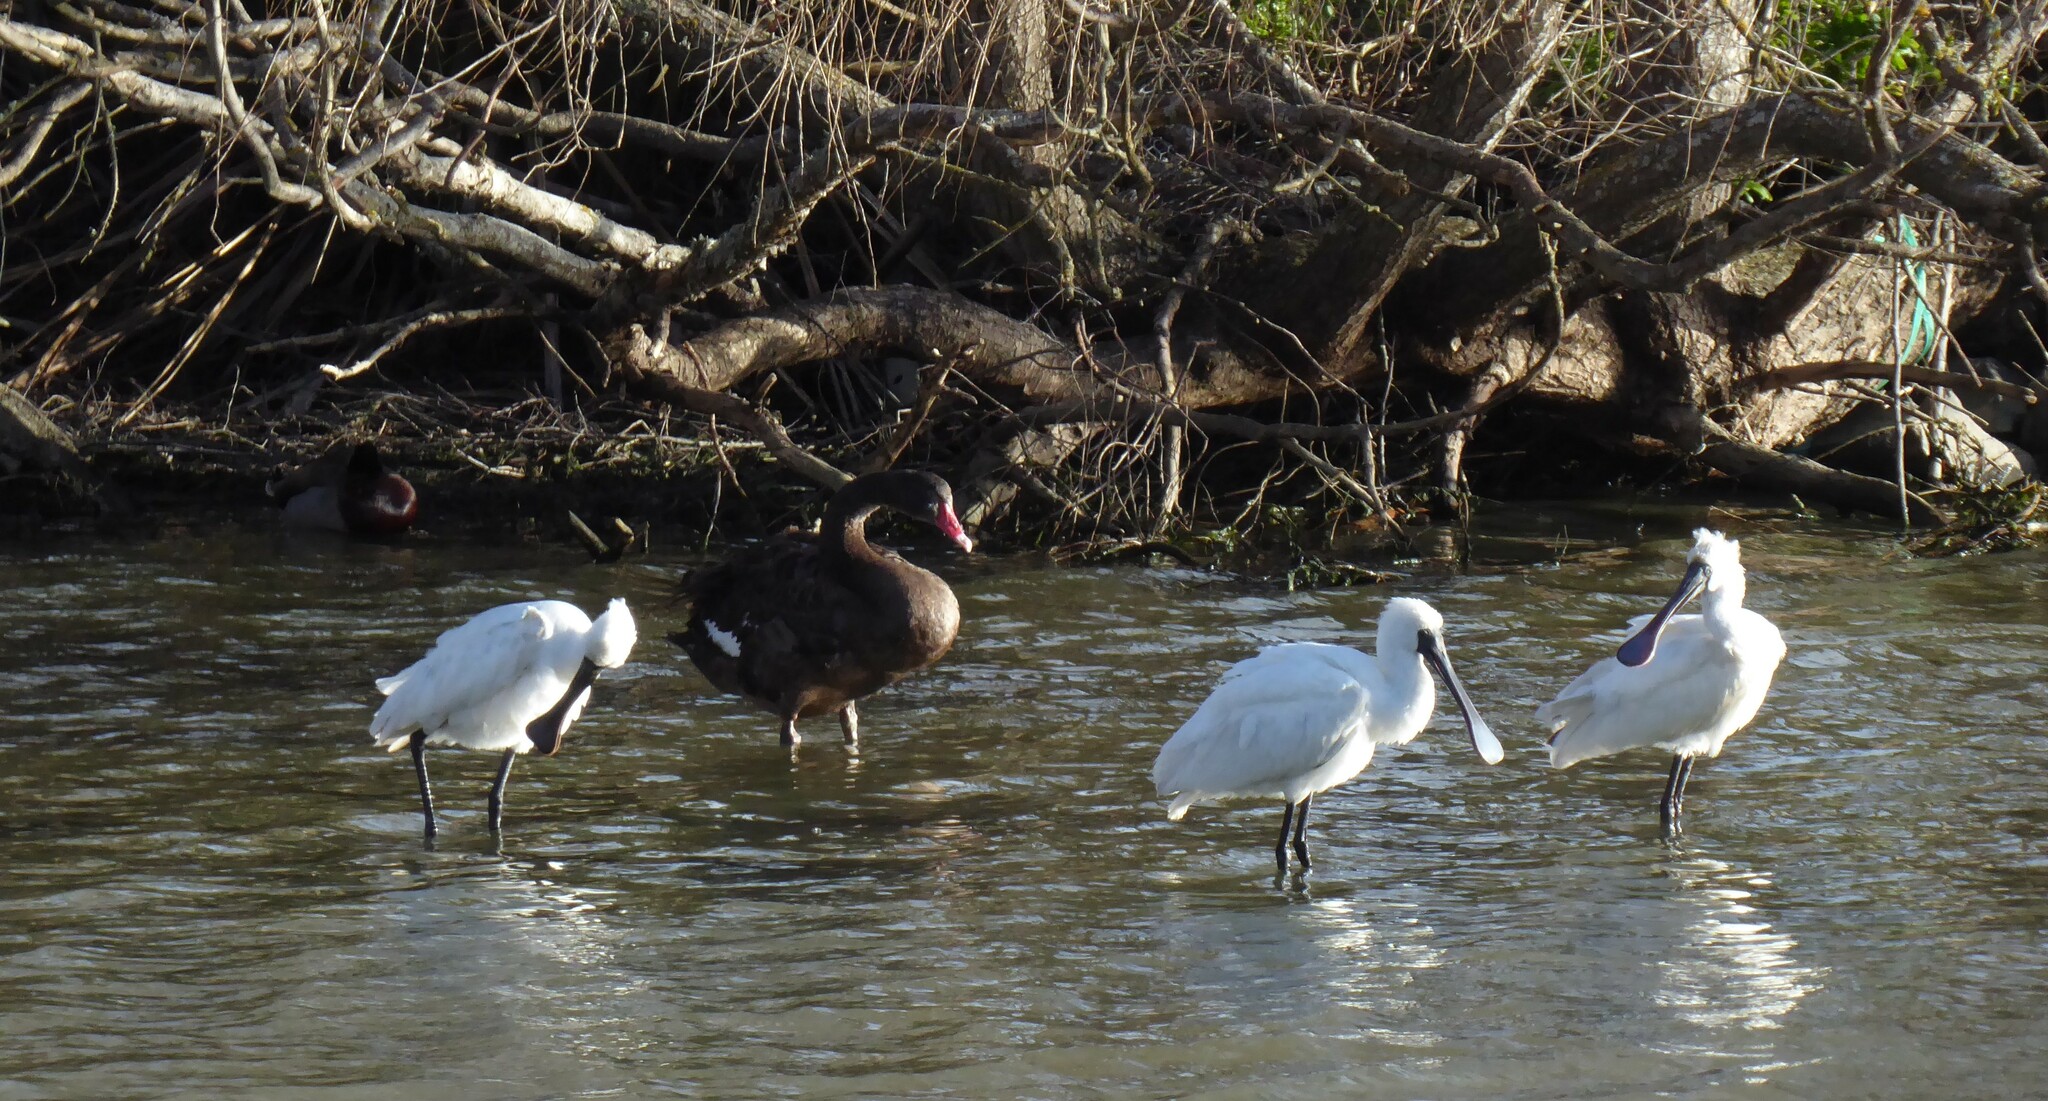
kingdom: Animalia
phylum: Chordata
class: Aves
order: Pelecaniformes
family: Threskiornithidae
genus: Platalea
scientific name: Platalea regia
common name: Royal spoonbill
